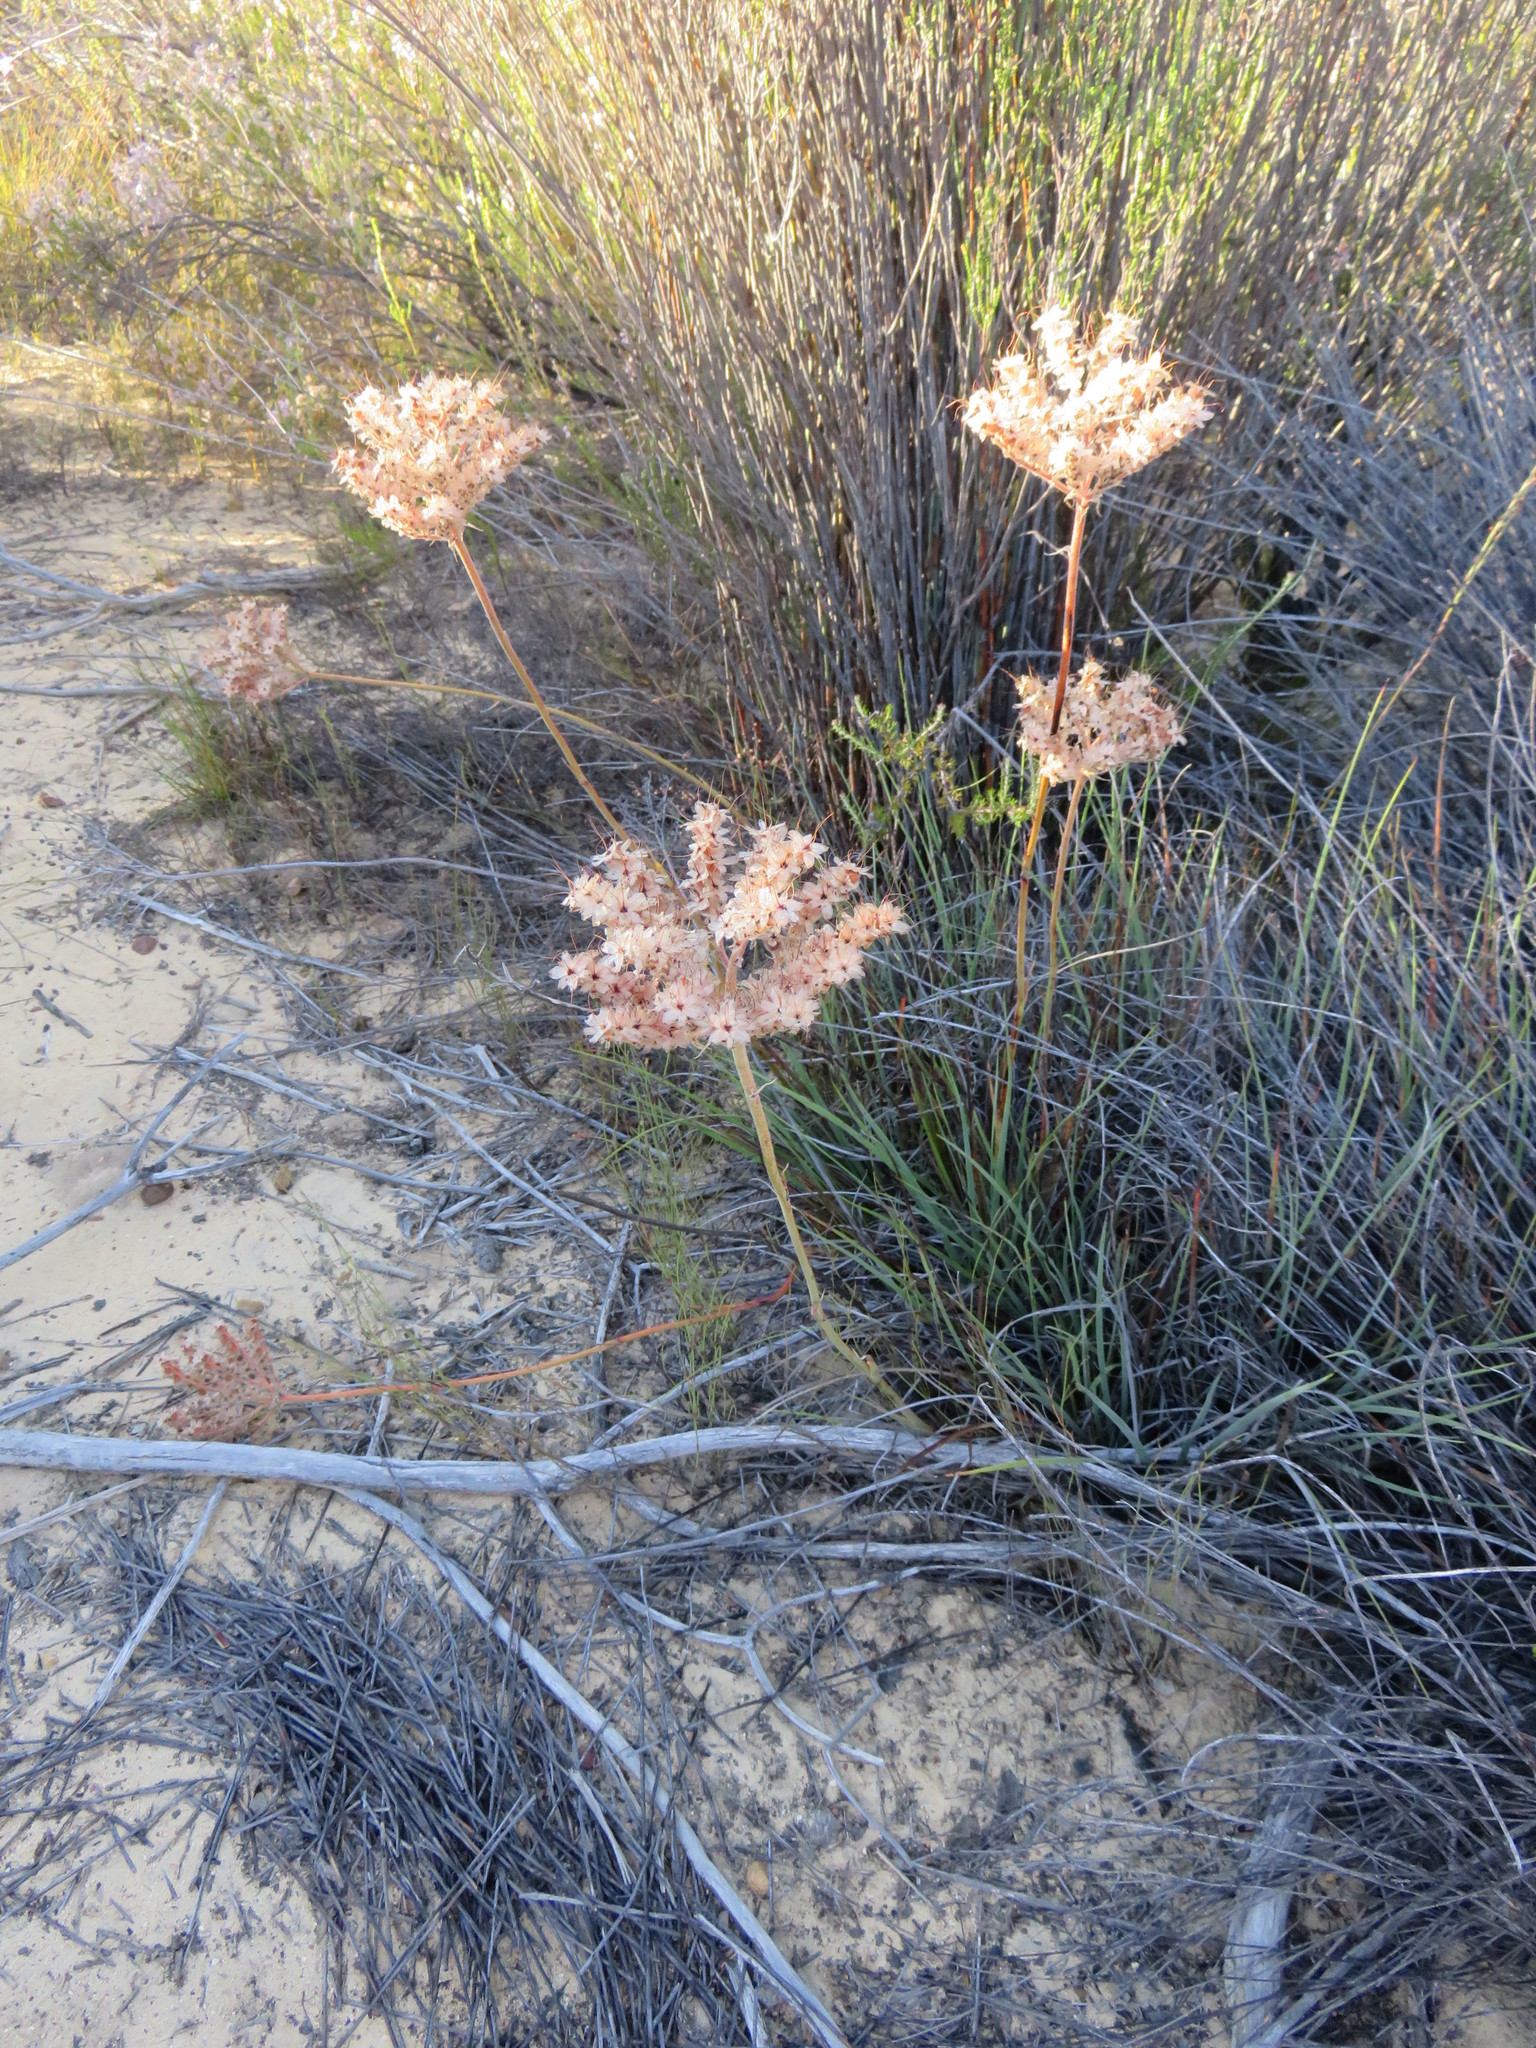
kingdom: Plantae
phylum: Tracheophyta
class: Liliopsida
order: Commelinales
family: Haemodoraceae
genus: Dilatris
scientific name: Dilatris ixioides
